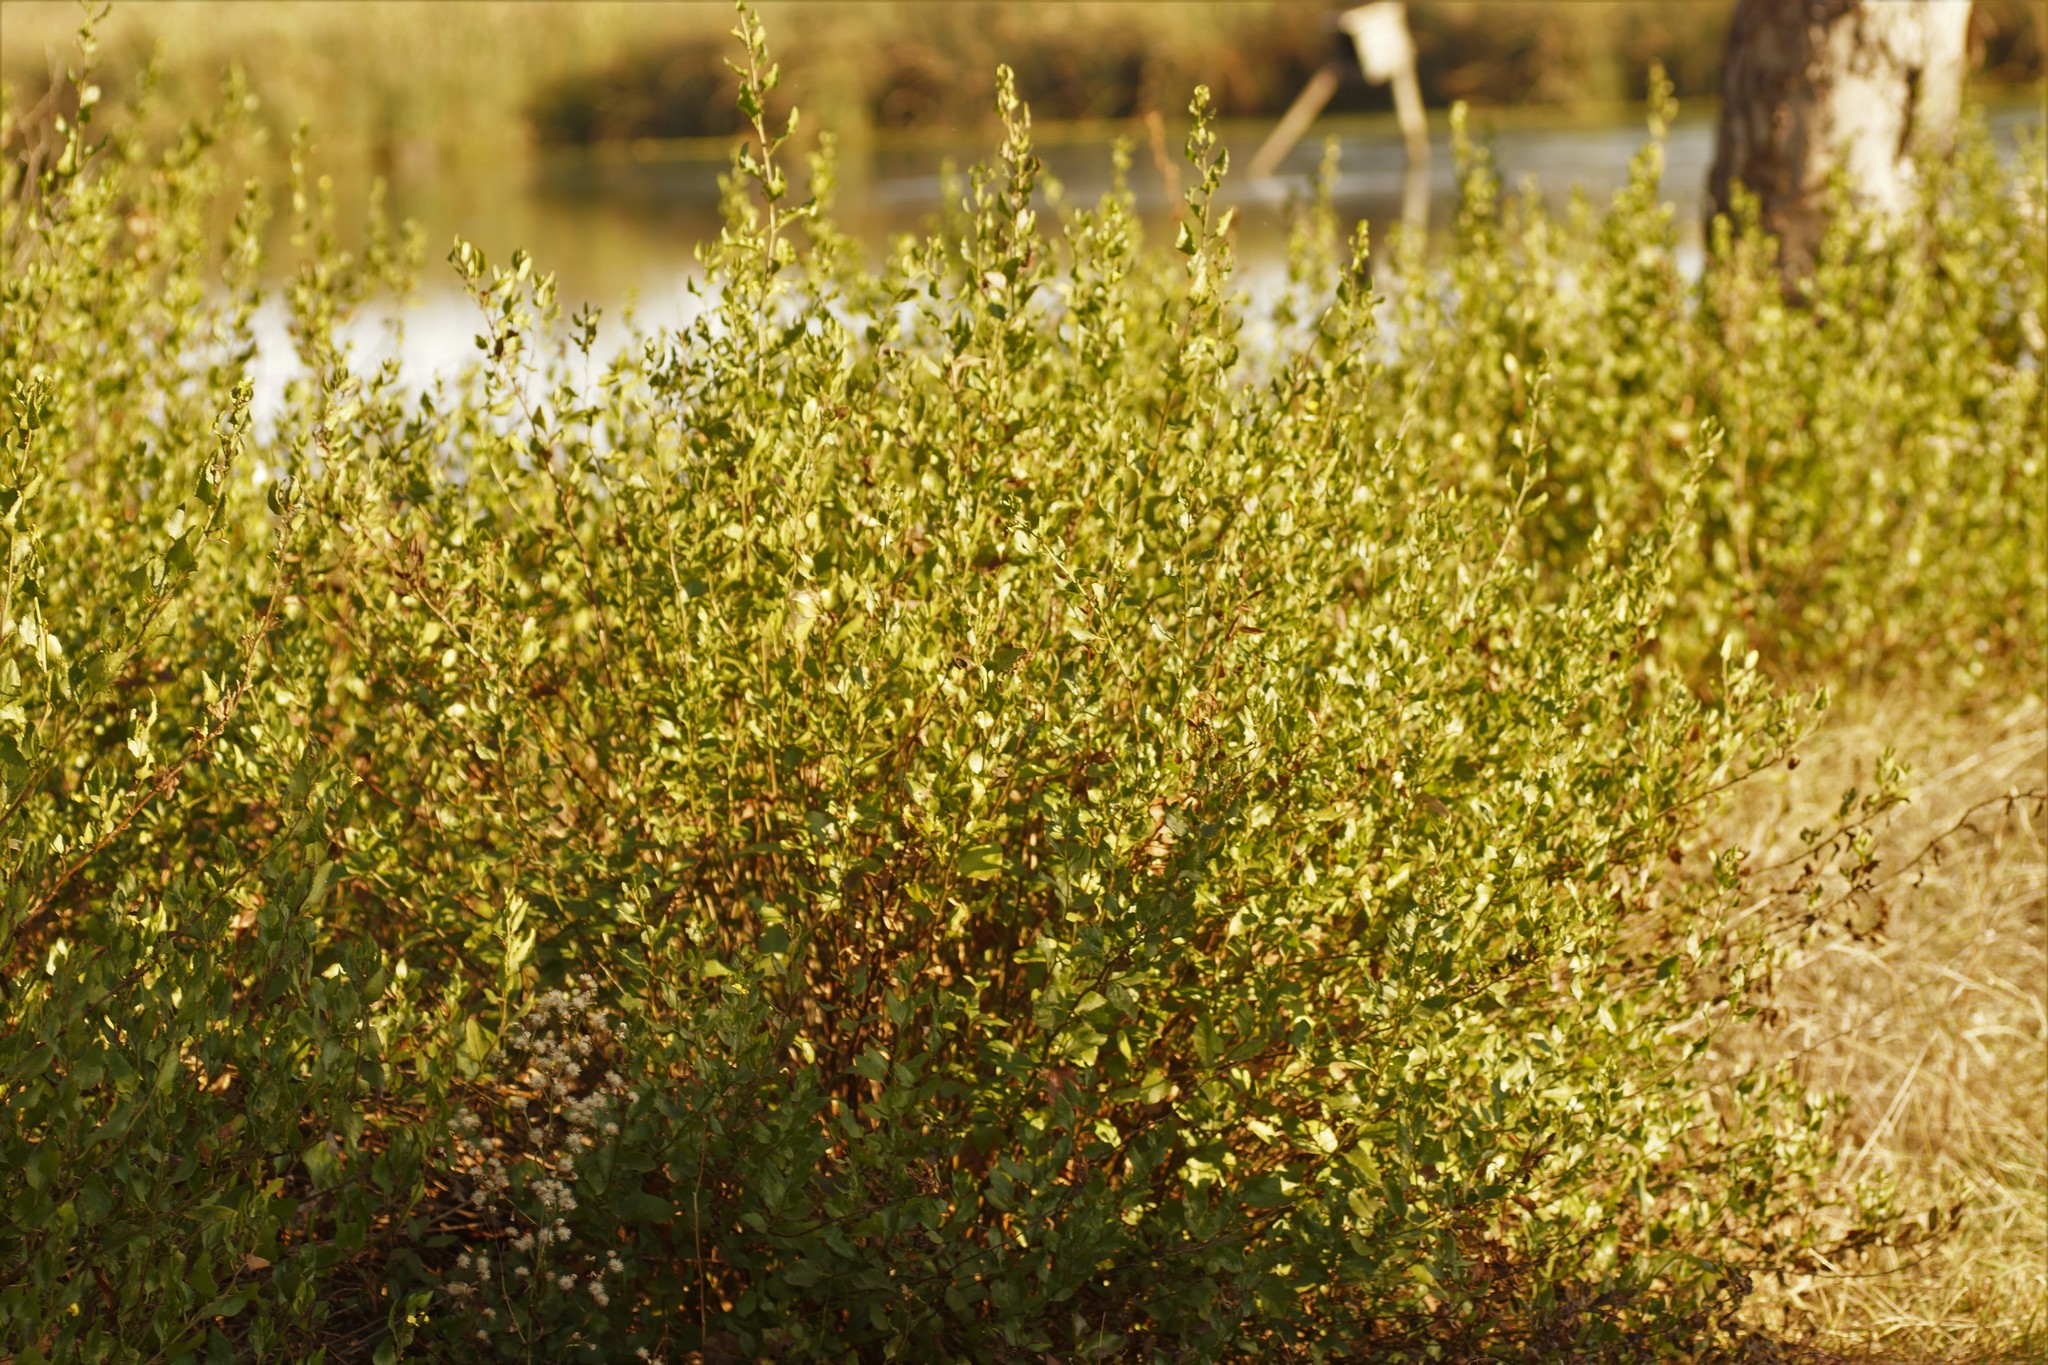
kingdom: Plantae
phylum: Tracheophyta
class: Magnoliopsida
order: Asterales
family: Goodeniaceae
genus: Goodenia
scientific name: Goodenia ovata
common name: Hop goodenia
